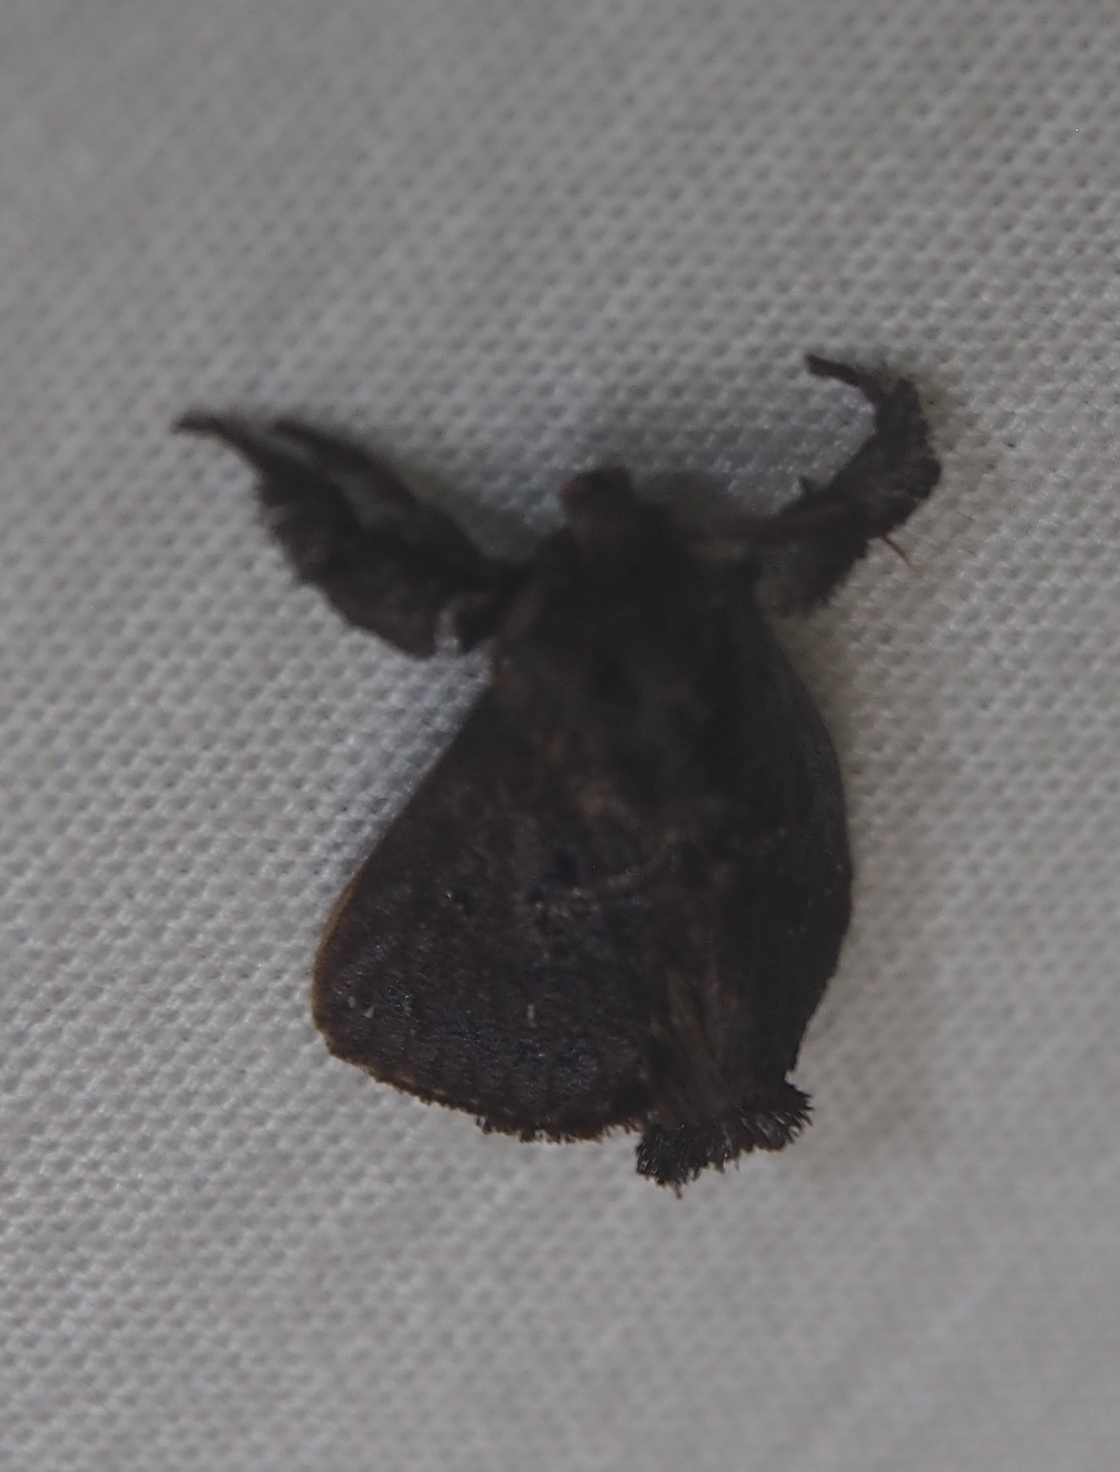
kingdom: Animalia
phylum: Arthropoda
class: Insecta
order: Lepidoptera
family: Limacodidae
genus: Euclea
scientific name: Euclea plugma
